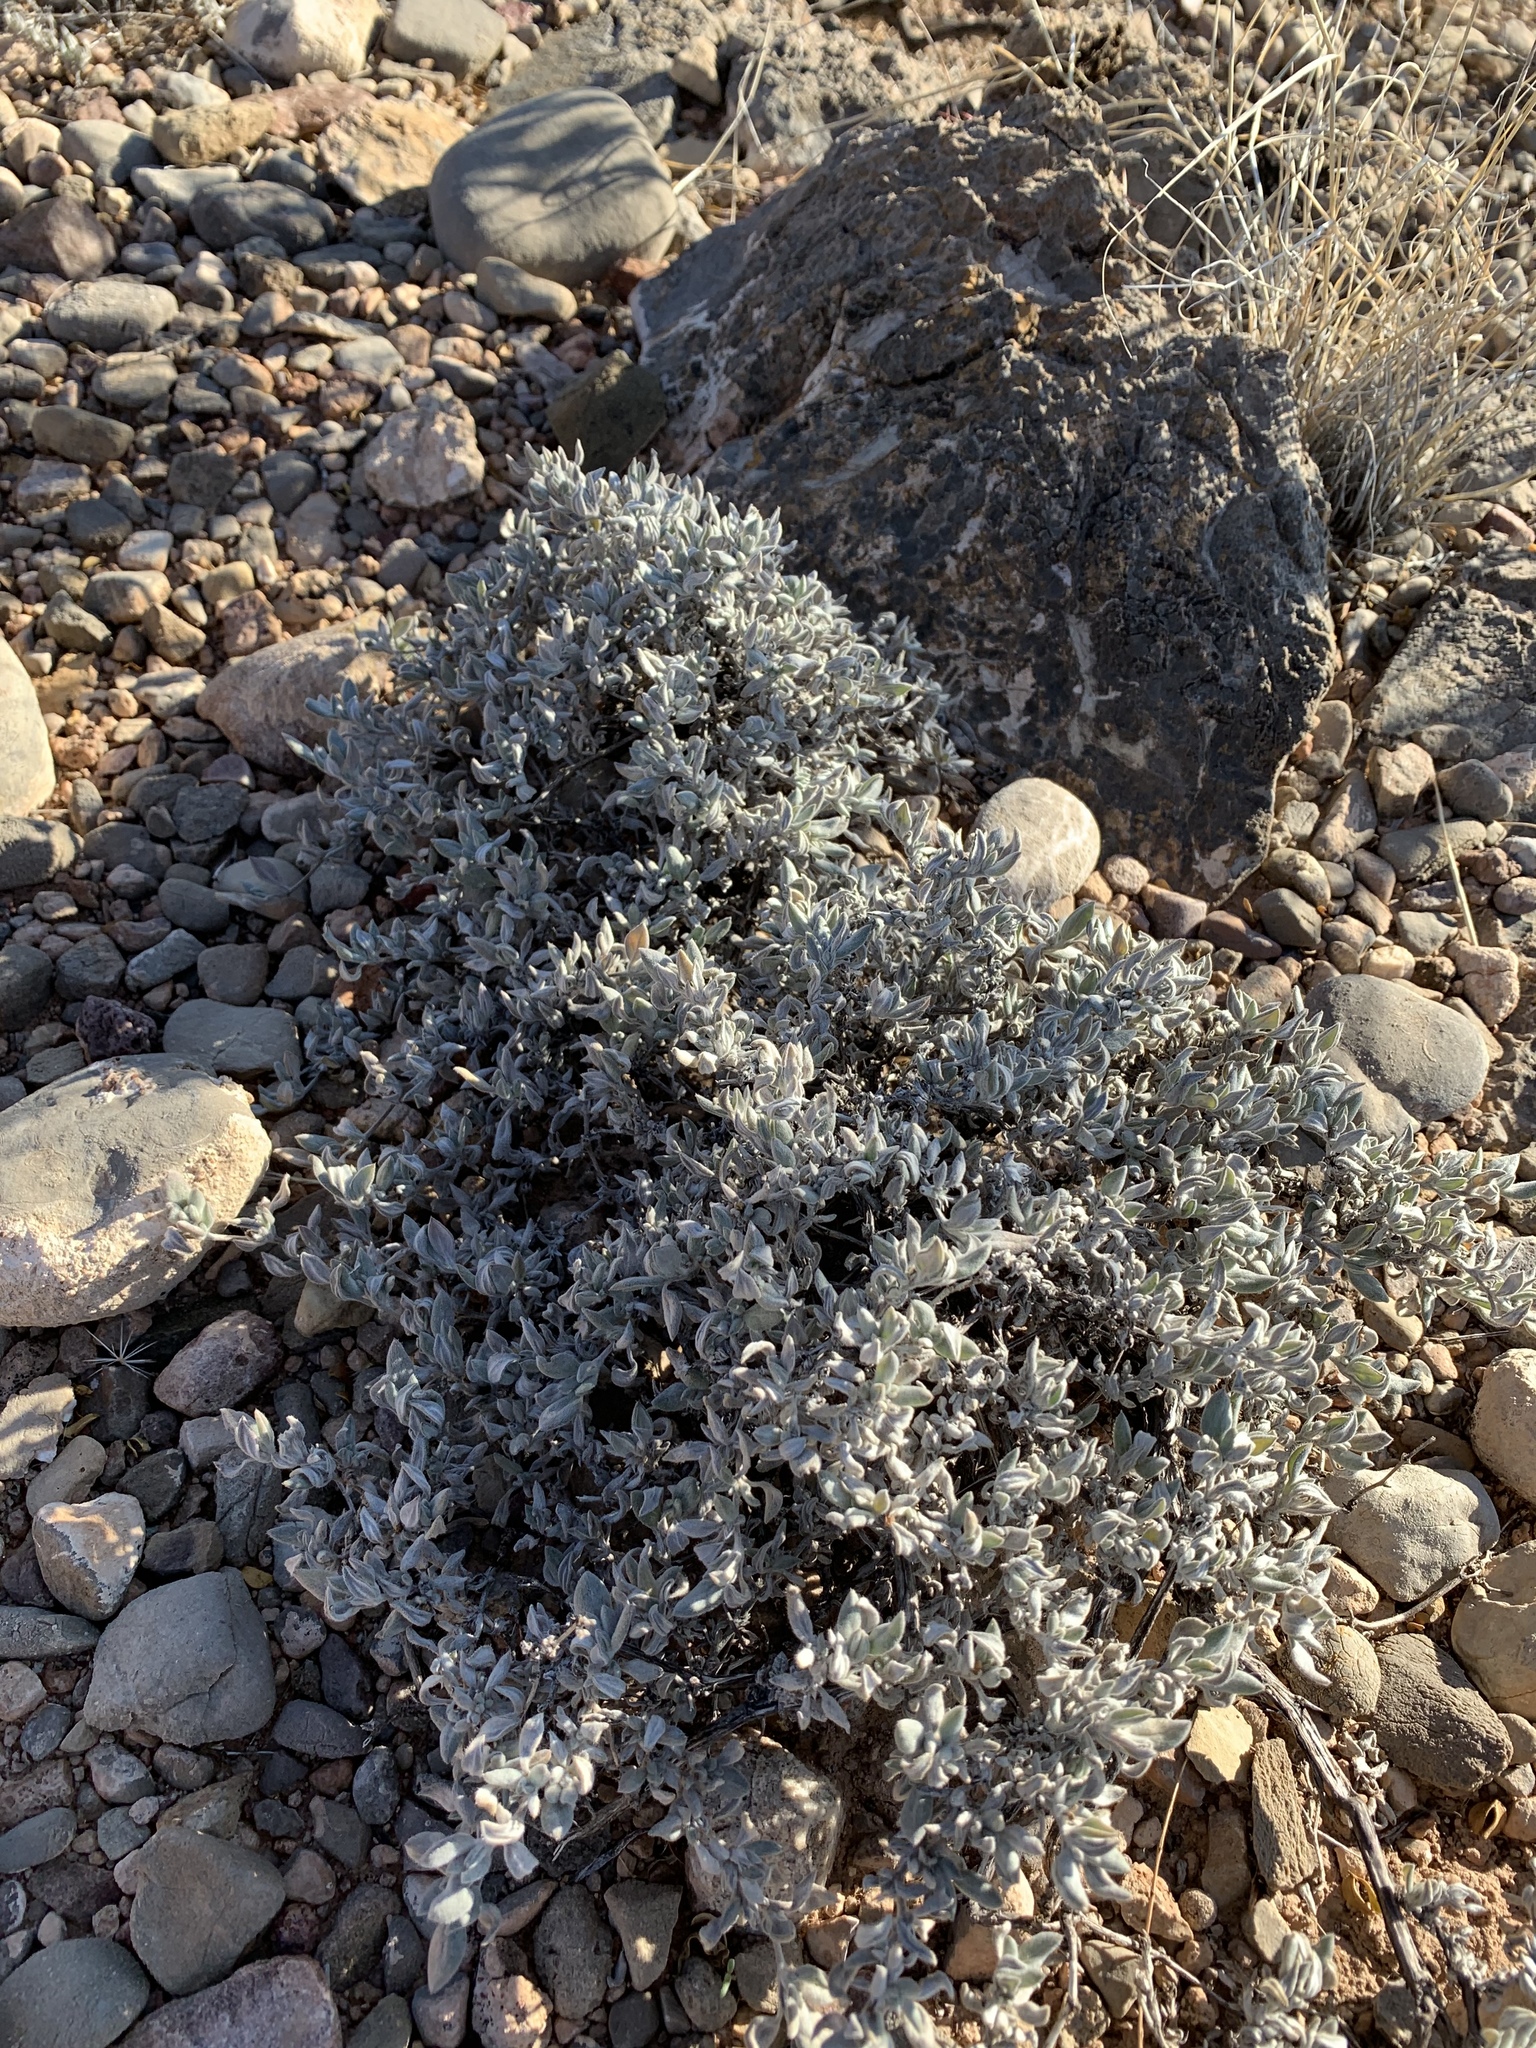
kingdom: Plantae
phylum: Tracheophyta
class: Magnoliopsida
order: Boraginales
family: Ehretiaceae
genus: Tiquilia
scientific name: Tiquilia canescens
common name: Hairy tiquilia
